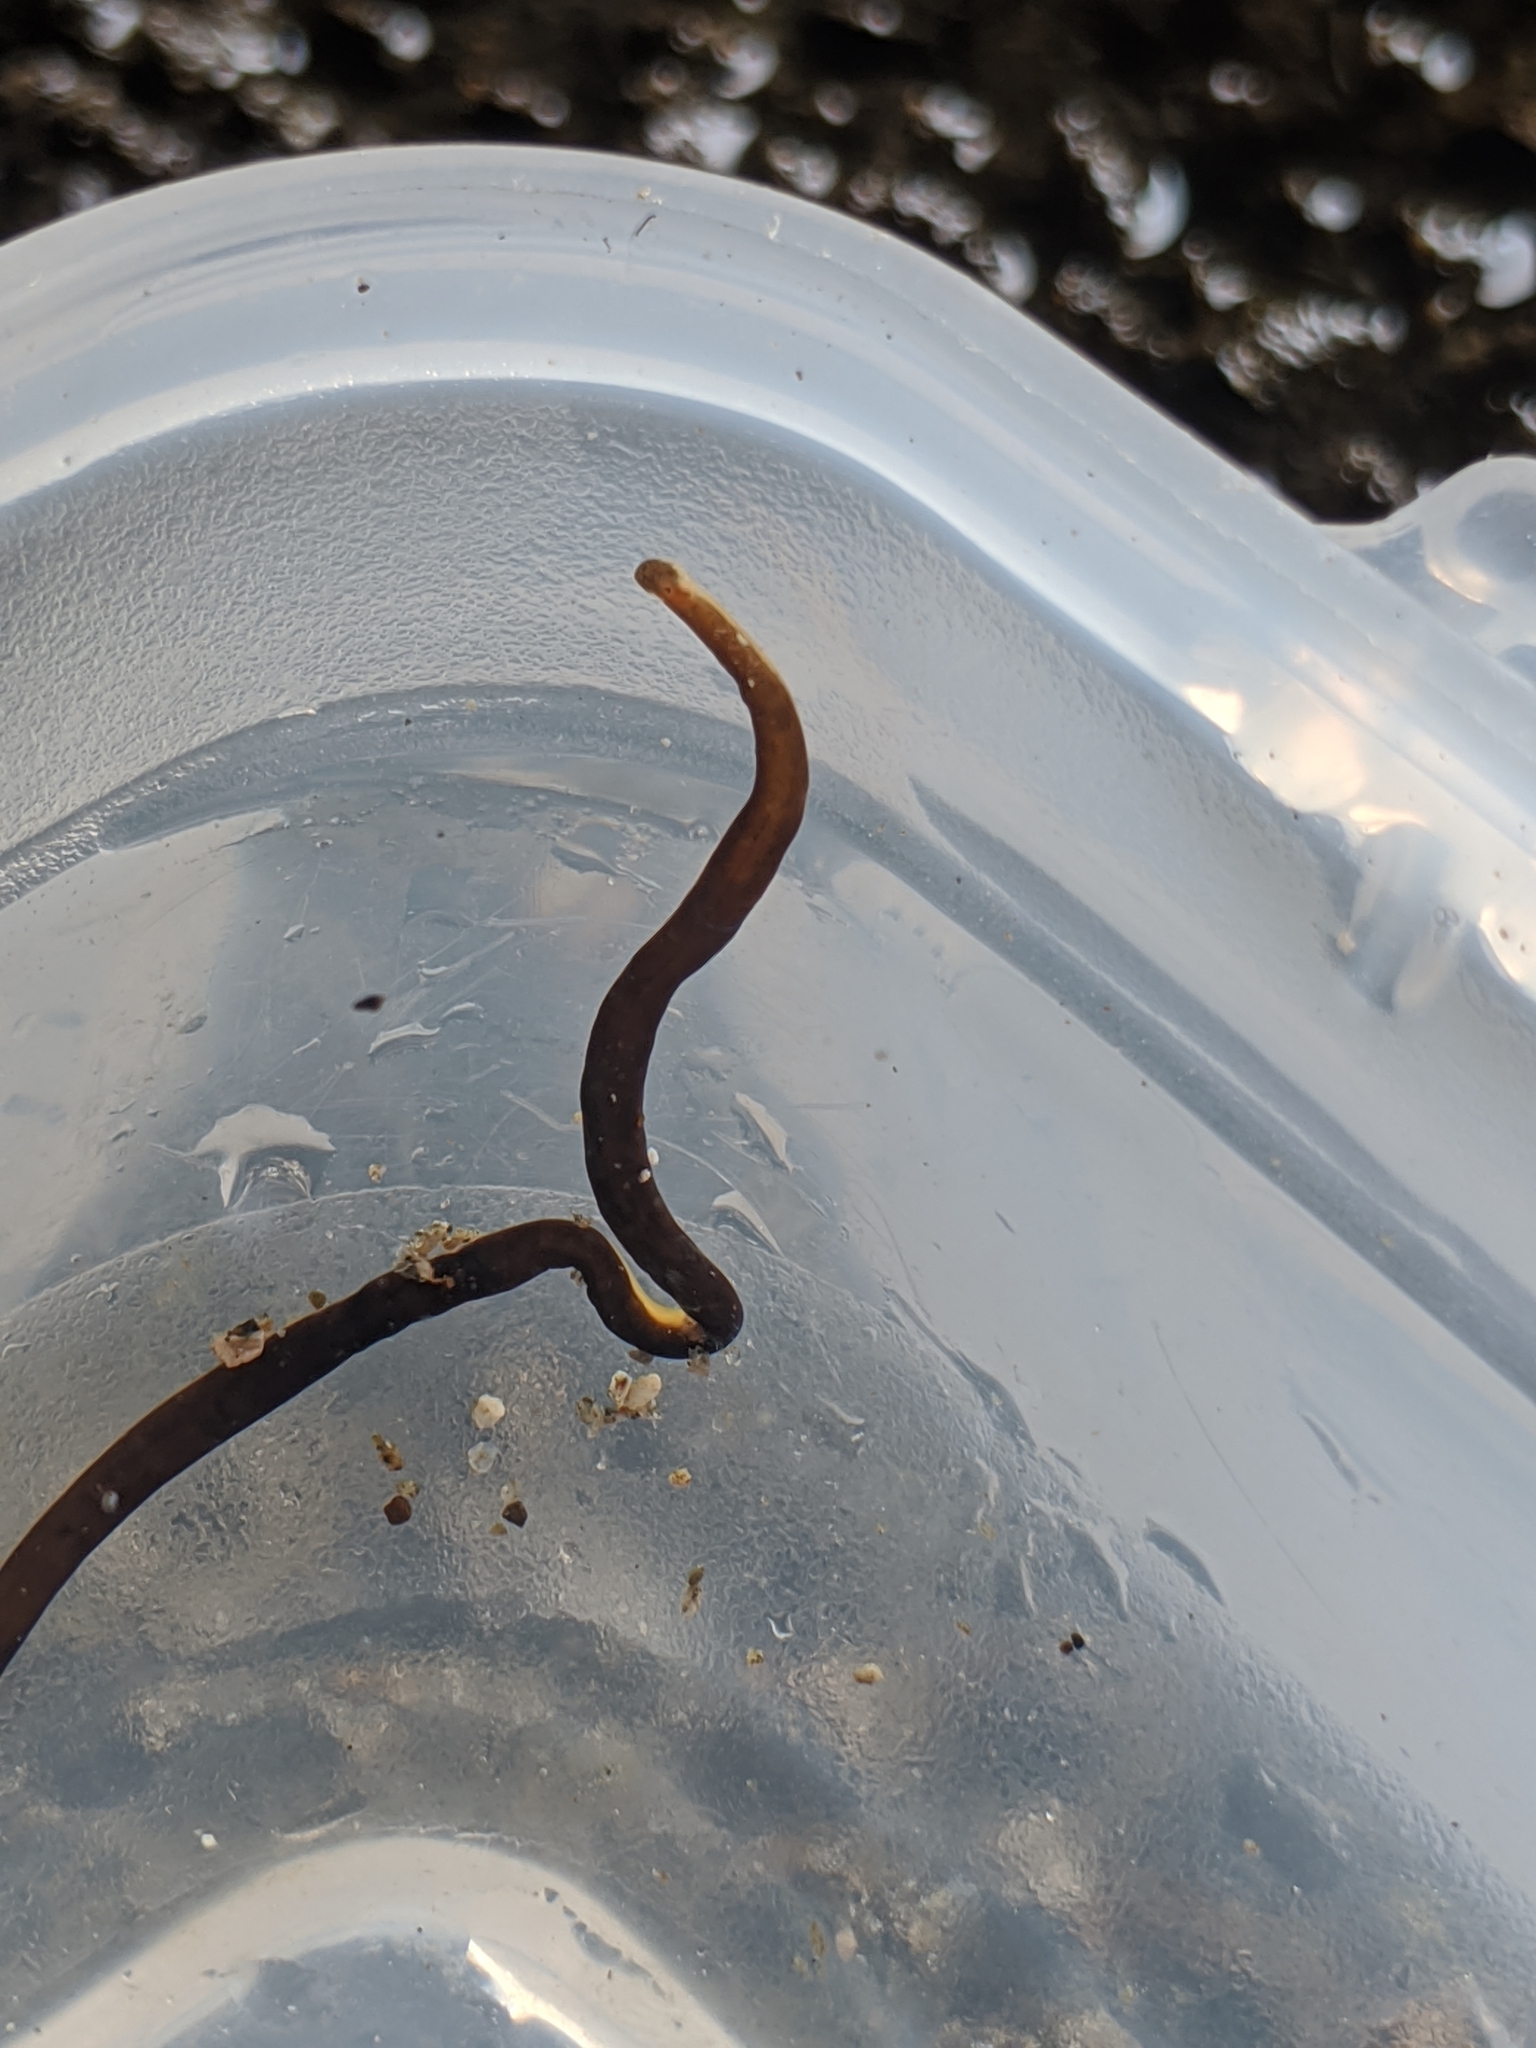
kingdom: Animalia
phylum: Nemertea
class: Hoplonemertea
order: Monostilifera
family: Neesiidae
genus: Paranemertes
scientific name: Paranemertes peregrina
